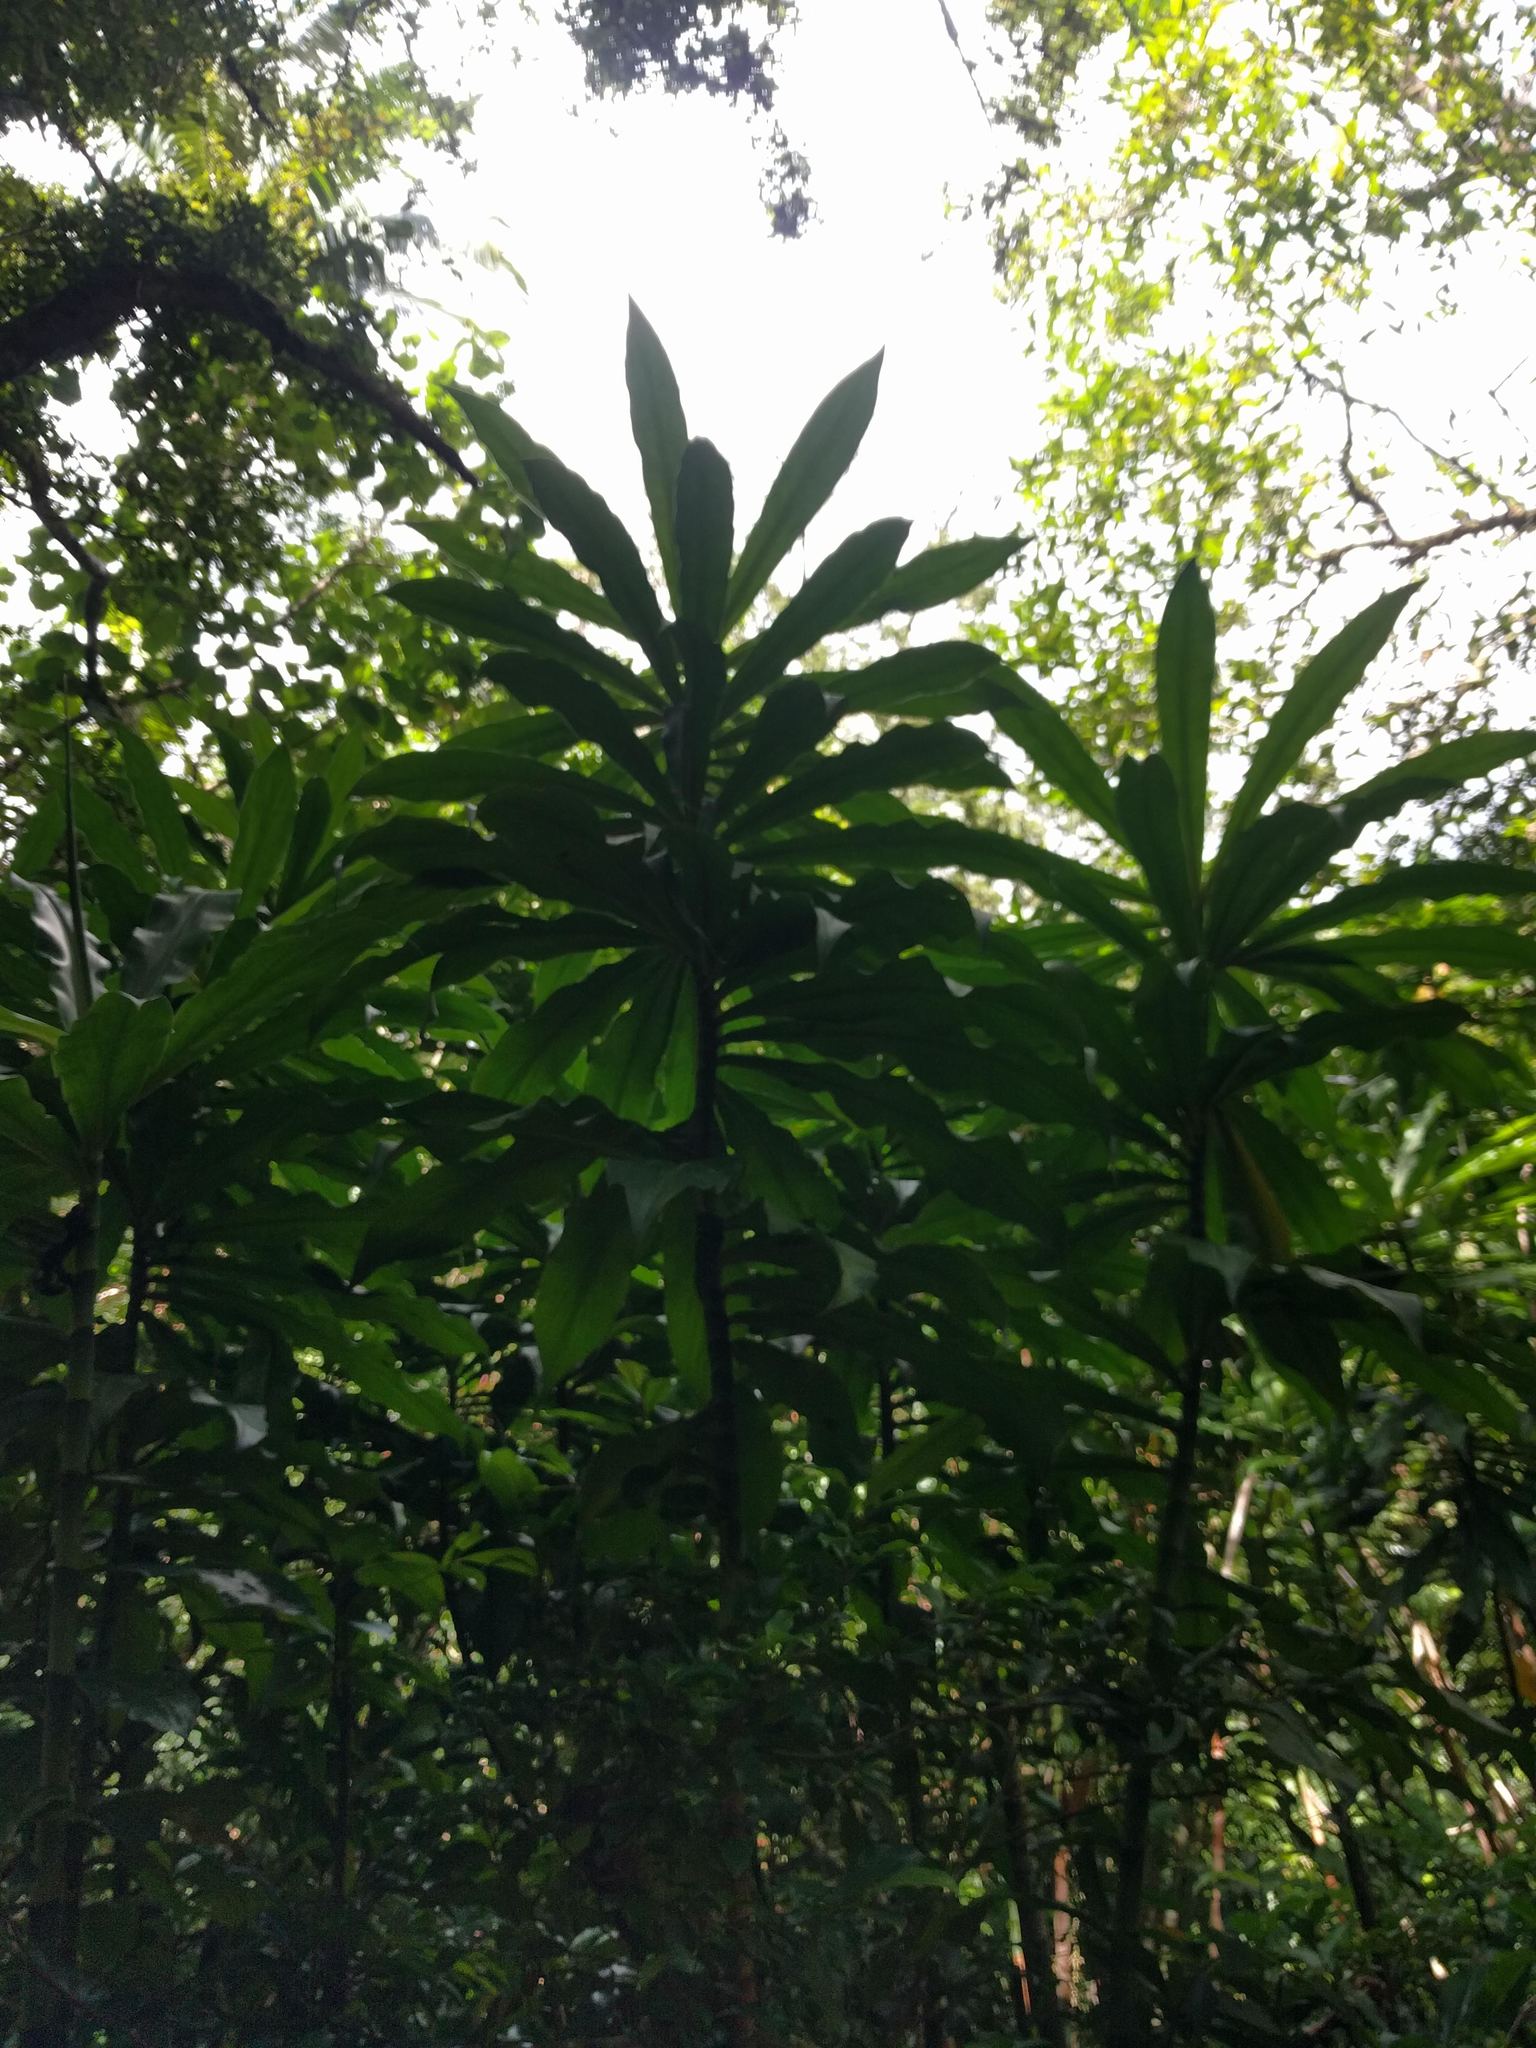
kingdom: Plantae
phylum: Tracheophyta
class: Liliopsida
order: Zingiberales
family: Costaceae
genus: Dimerocostus
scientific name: Dimerocostus strobilaceus
